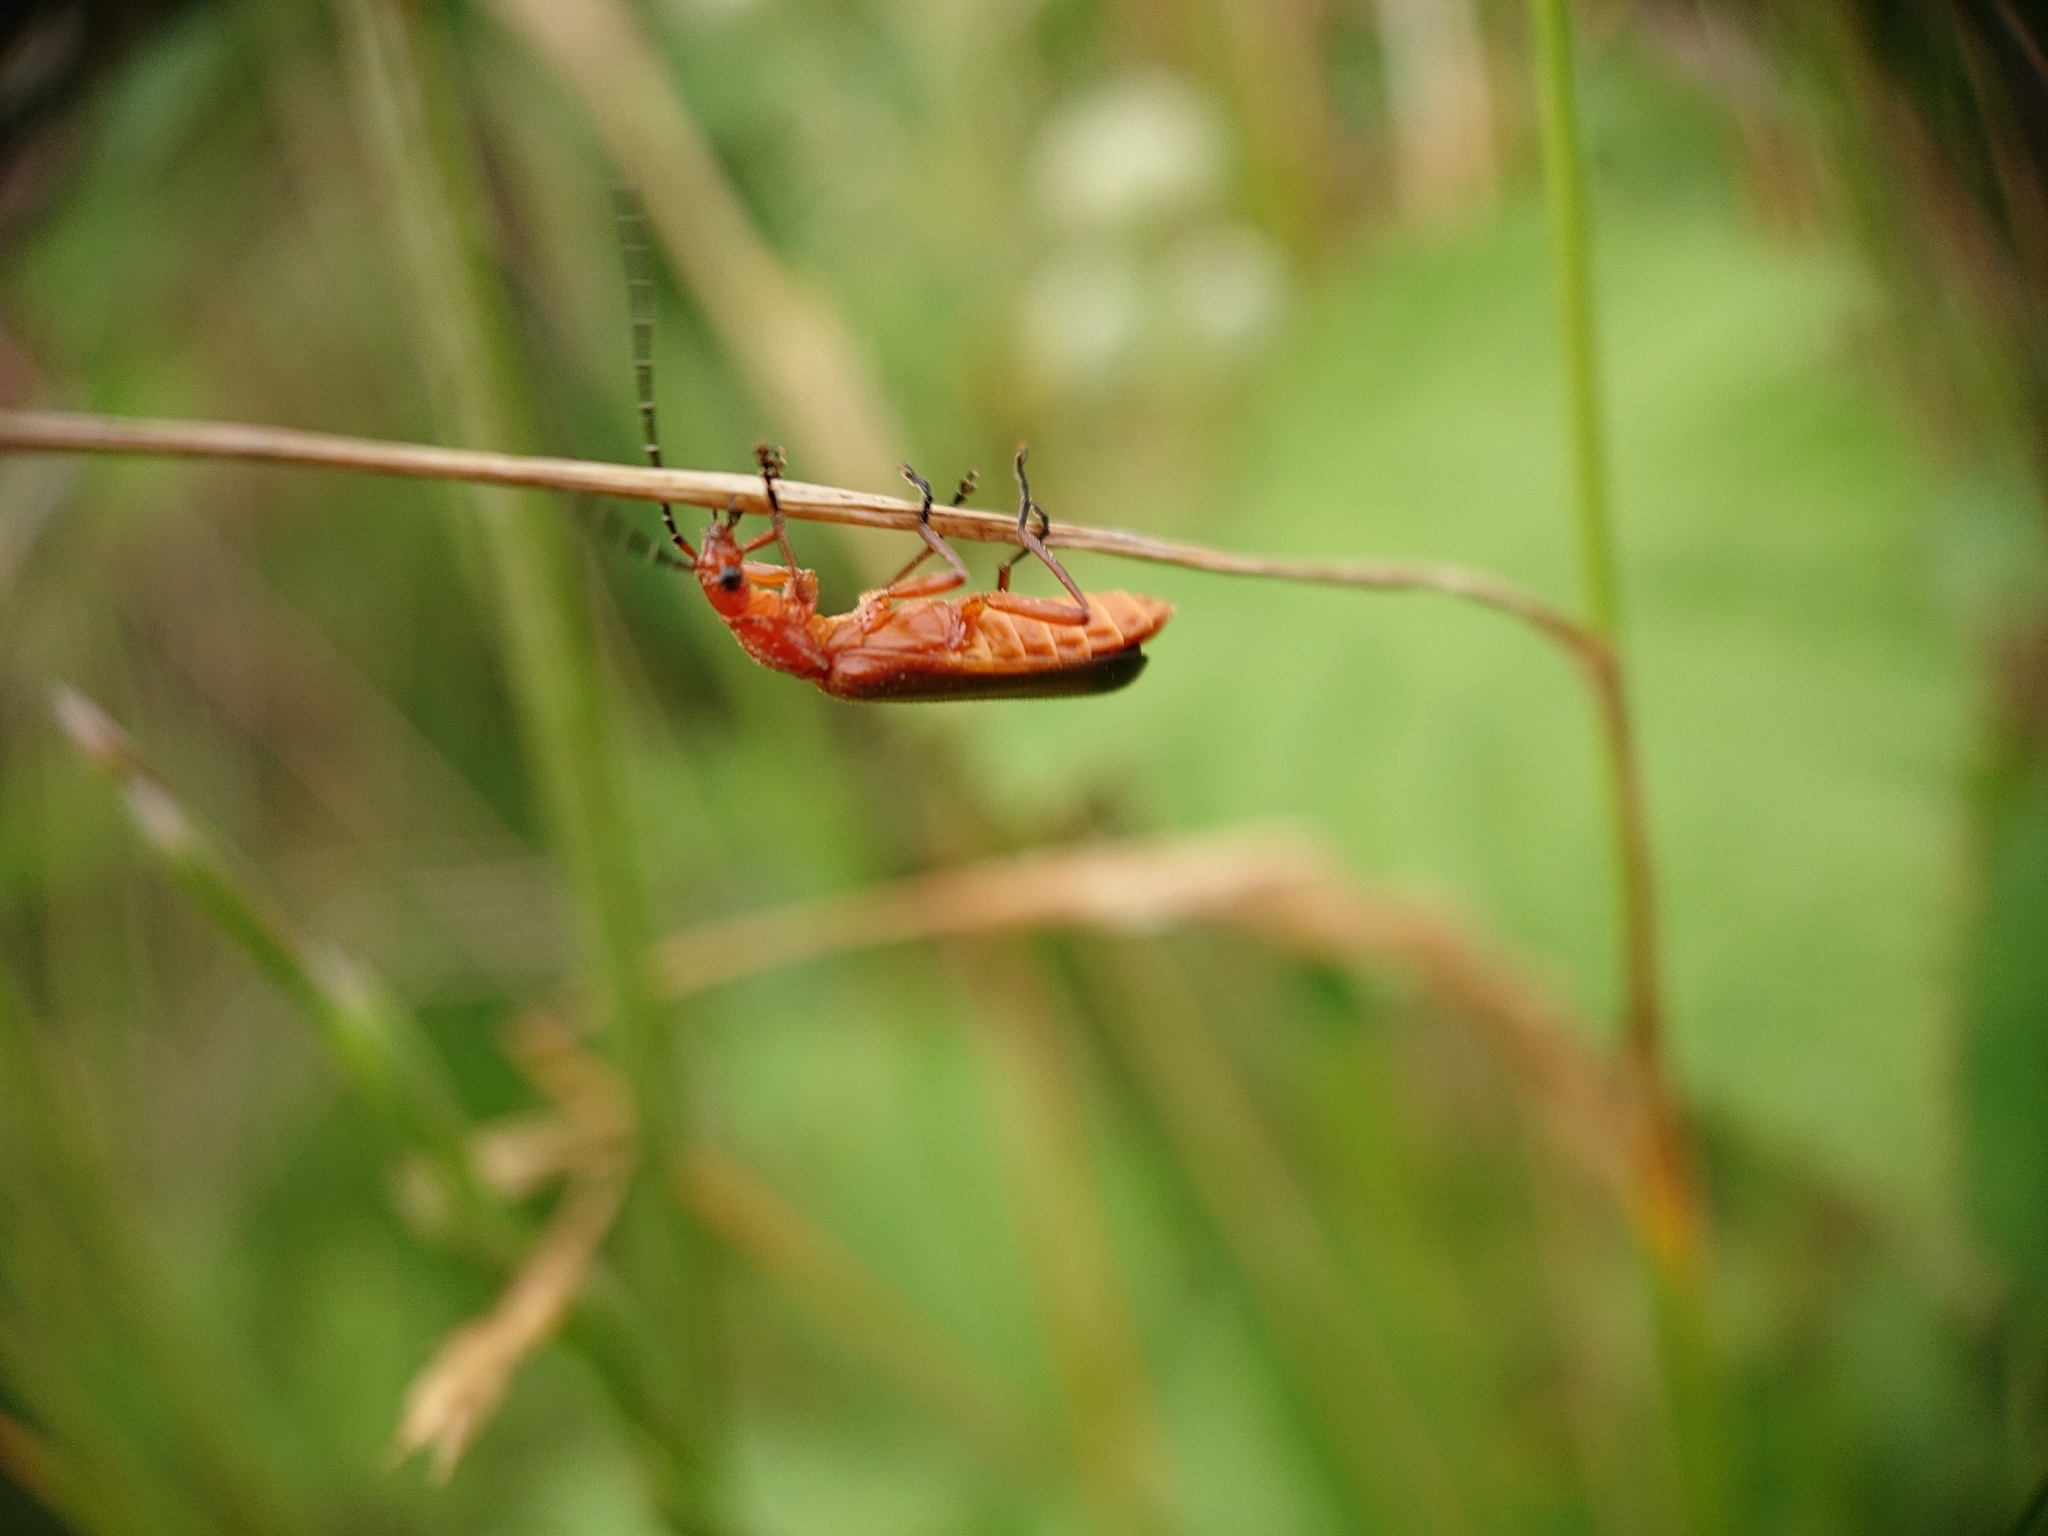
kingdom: Animalia
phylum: Arthropoda
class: Insecta
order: Coleoptera
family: Cantharidae
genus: Rhagonycha
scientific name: Rhagonycha fulva
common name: Common red soldier beetle
